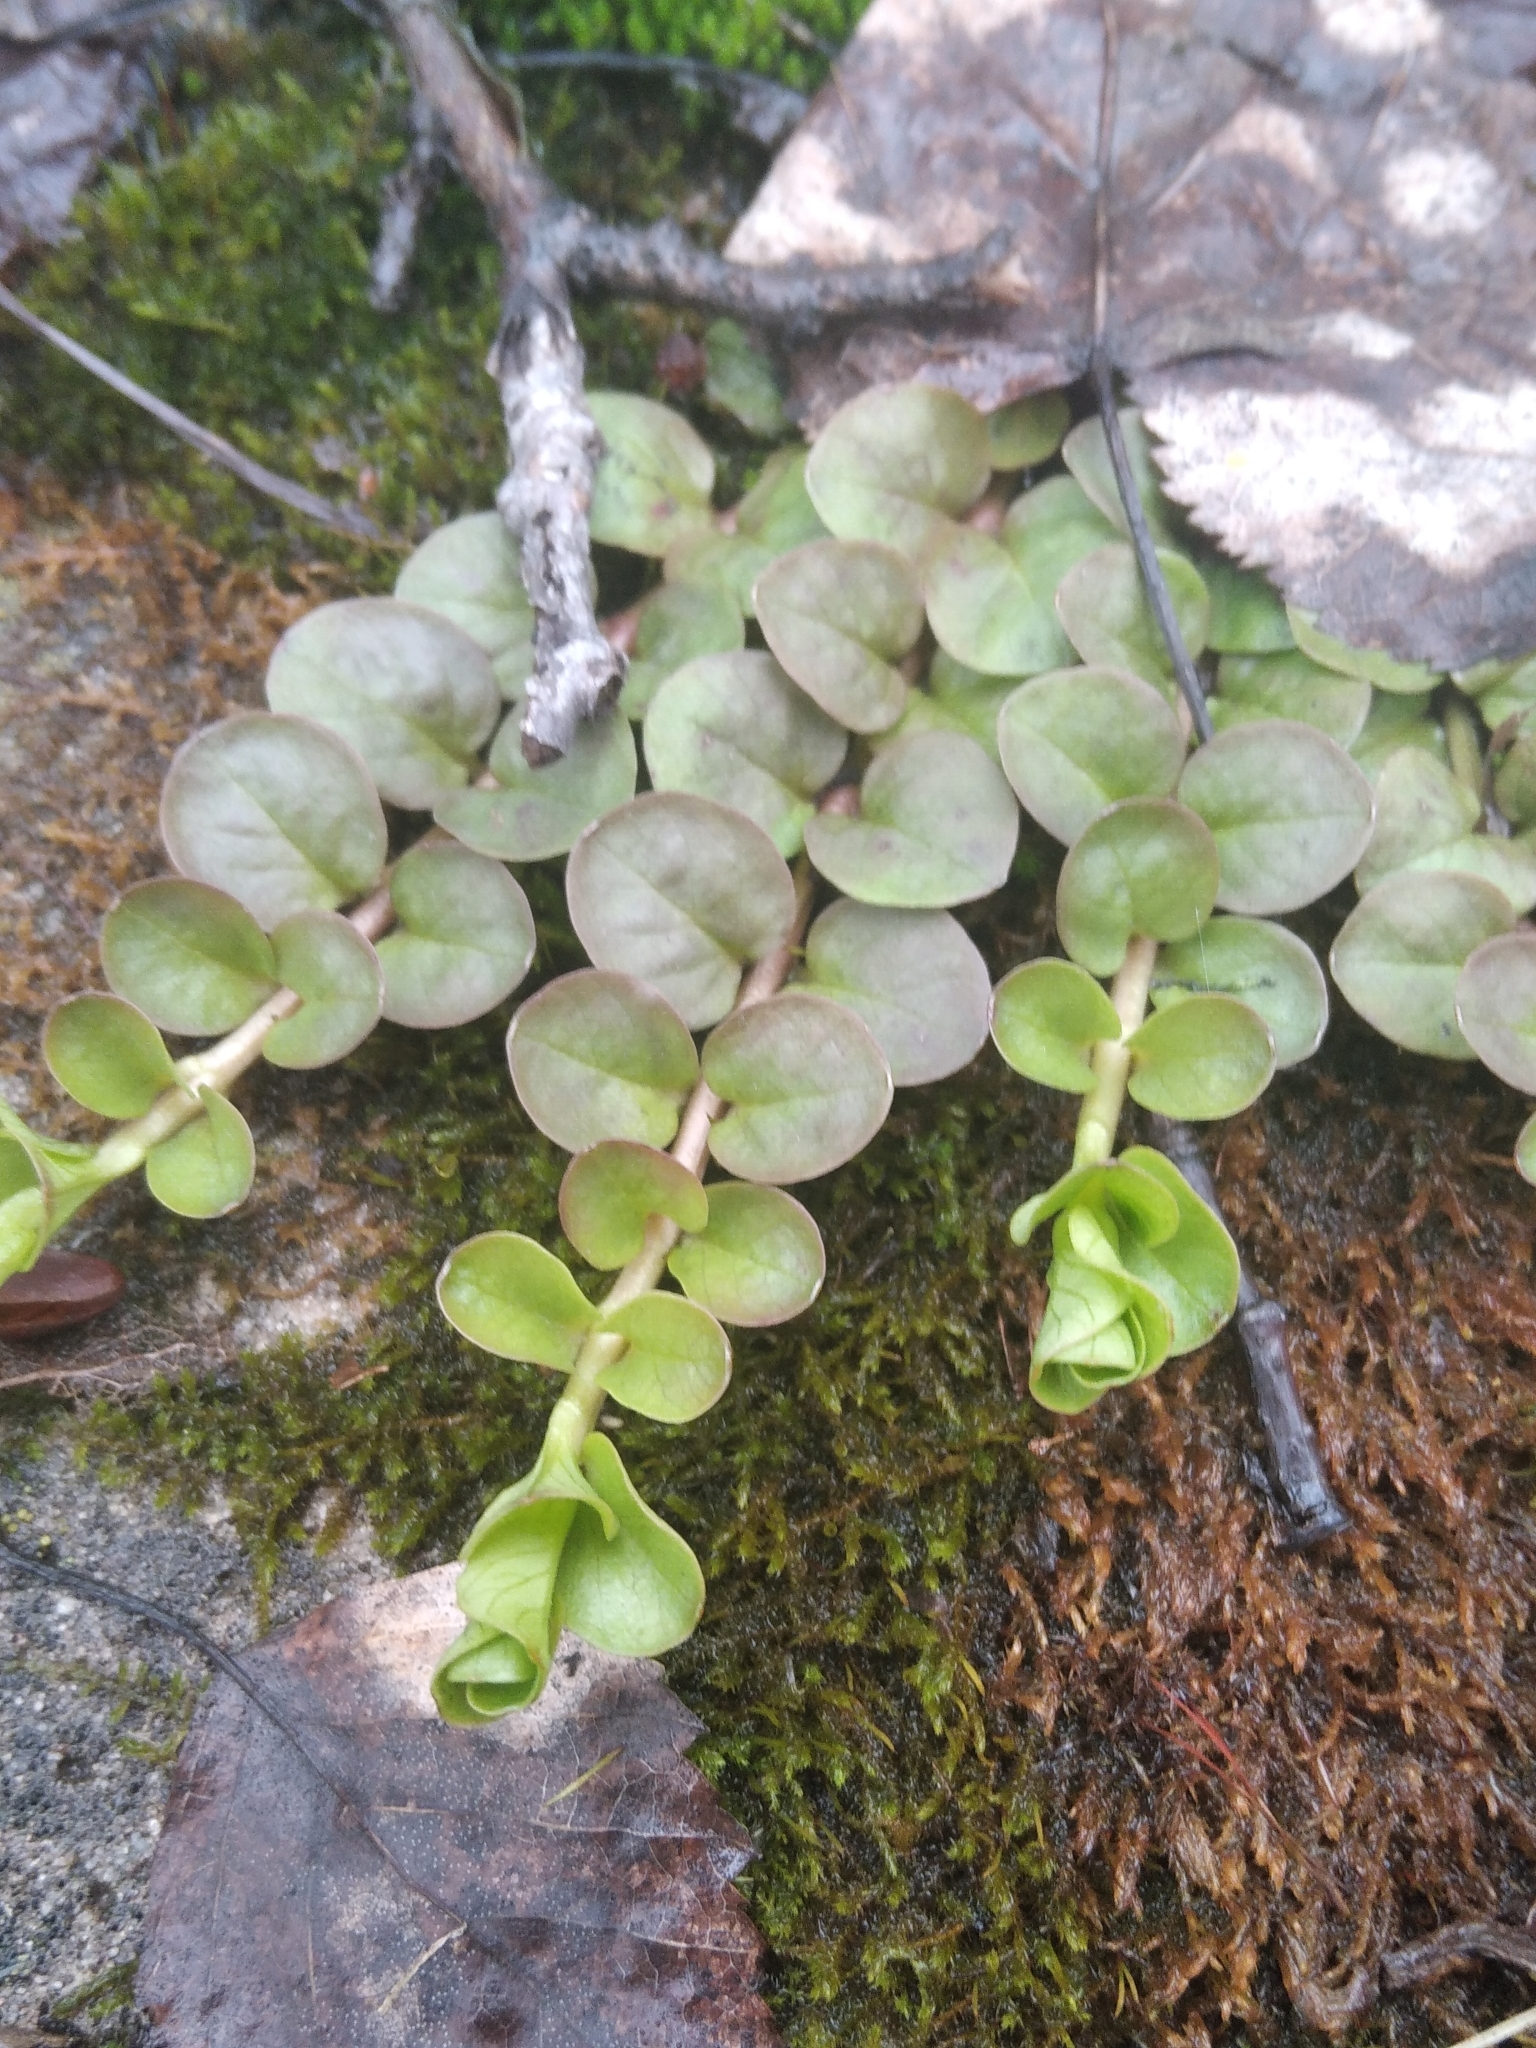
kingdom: Plantae
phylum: Tracheophyta
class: Magnoliopsida
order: Ericales
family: Primulaceae
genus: Lysimachia
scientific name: Lysimachia nummularia
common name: Moneywort
